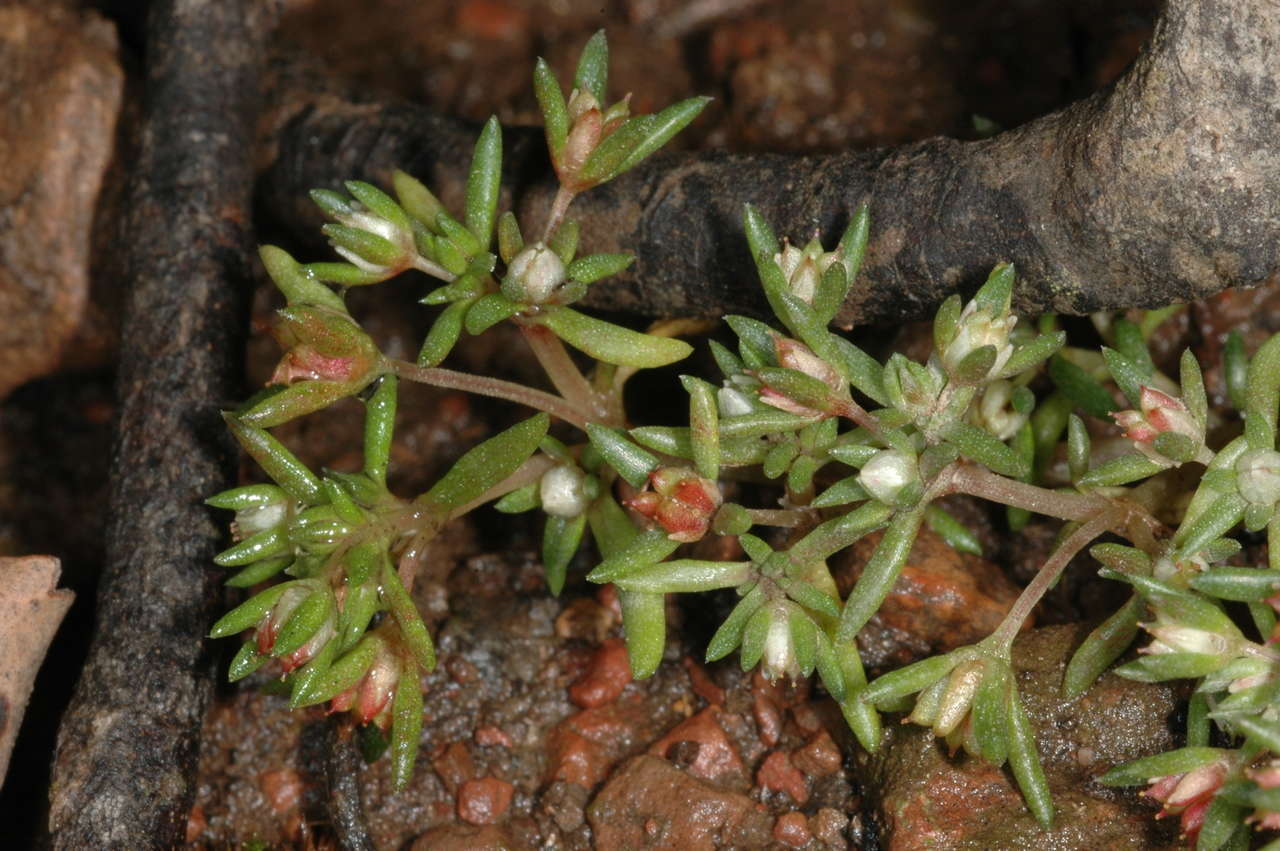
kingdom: Plantae
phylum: Tracheophyta
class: Magnoliopsida
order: Saxifragales
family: Crassulaceae
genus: Crassula
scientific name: Crassula decumbens
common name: Scilly pigmyweed
